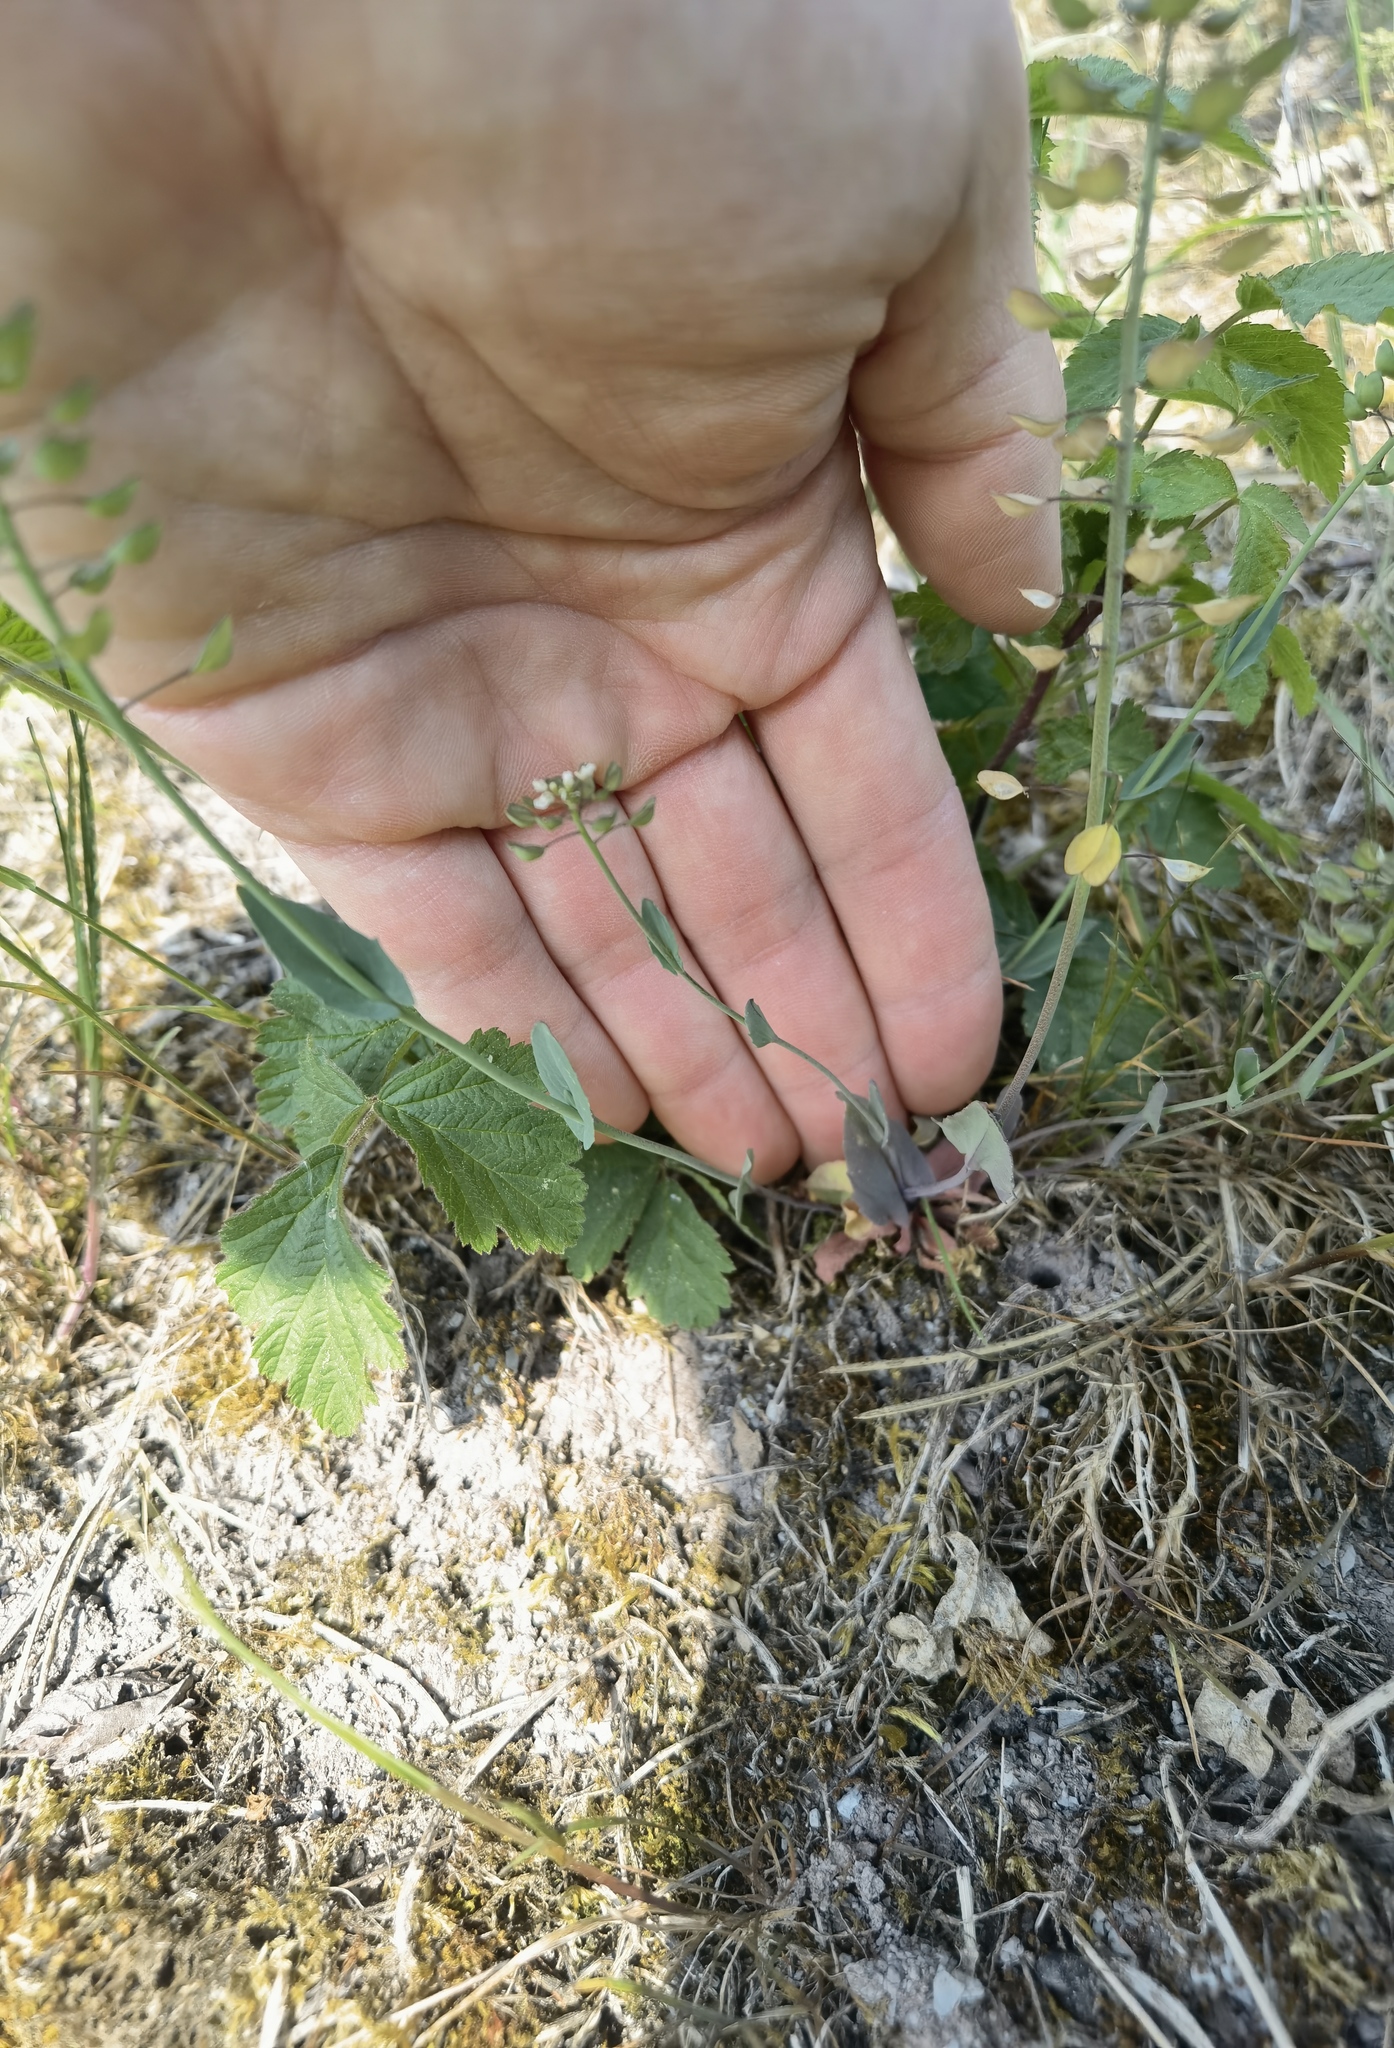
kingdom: Plantae
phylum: Tracheophyta
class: Magnoliopsida
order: Brassicales
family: Brassicaceae
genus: Noccaea
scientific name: Noccaea perfoliata
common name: Perfoliate pennycress
